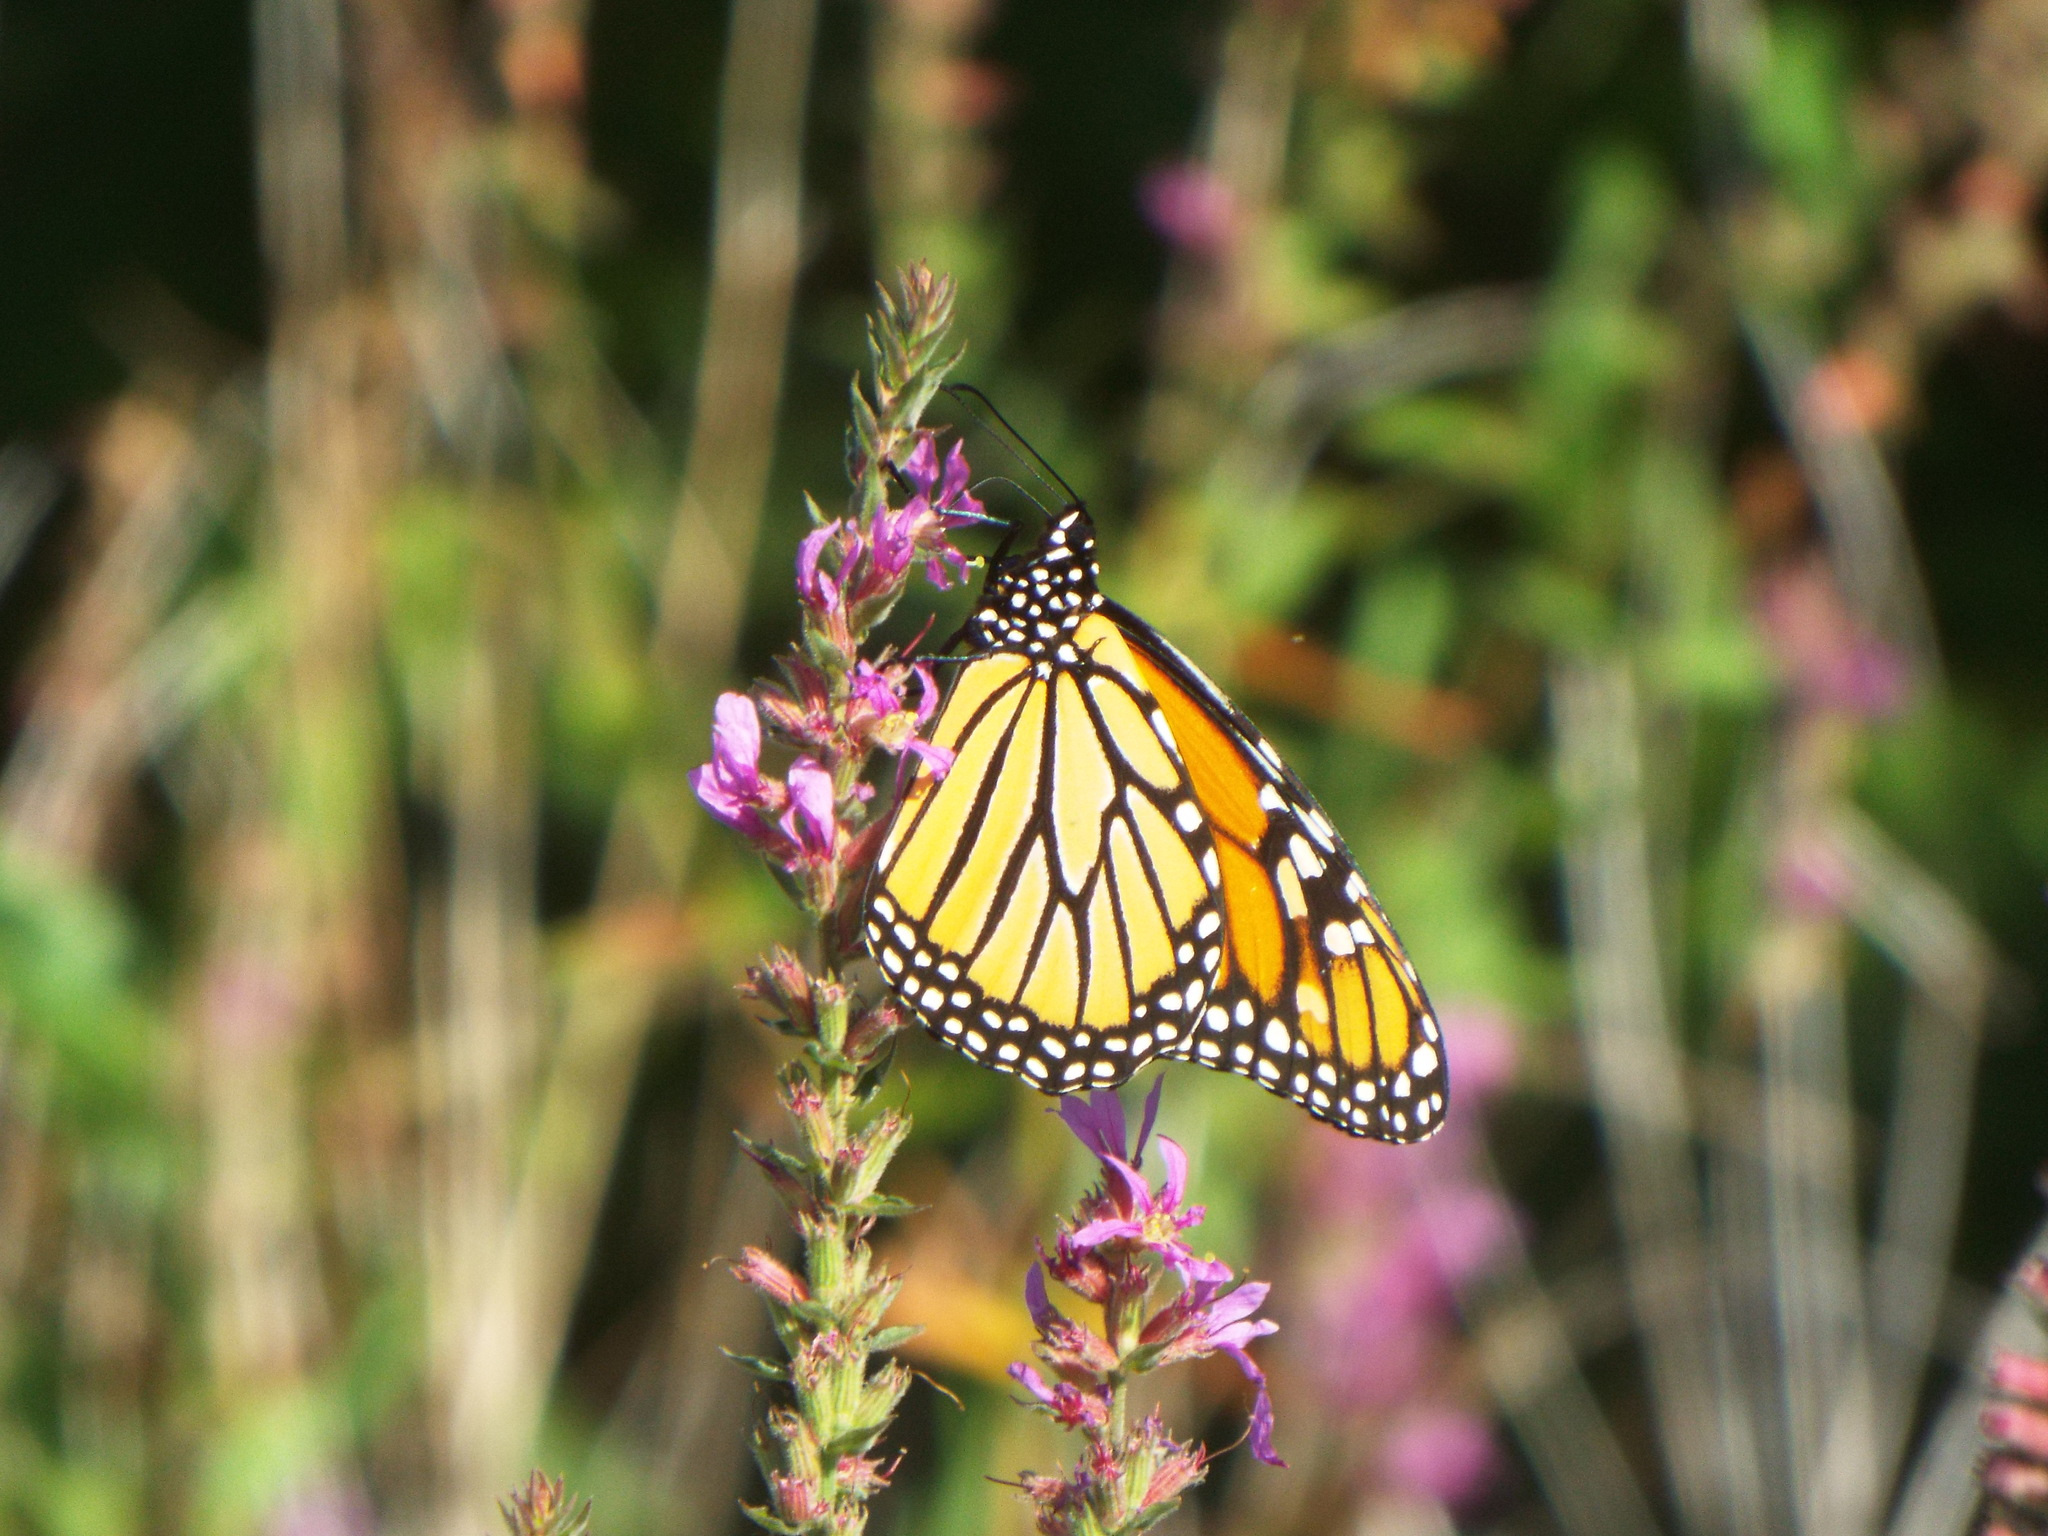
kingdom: Animalia
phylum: Arthropoda
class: Insecta
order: Lepidoptera
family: Nymphalidae
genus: Danaus
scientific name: Danaus plexippus
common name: Monarch
